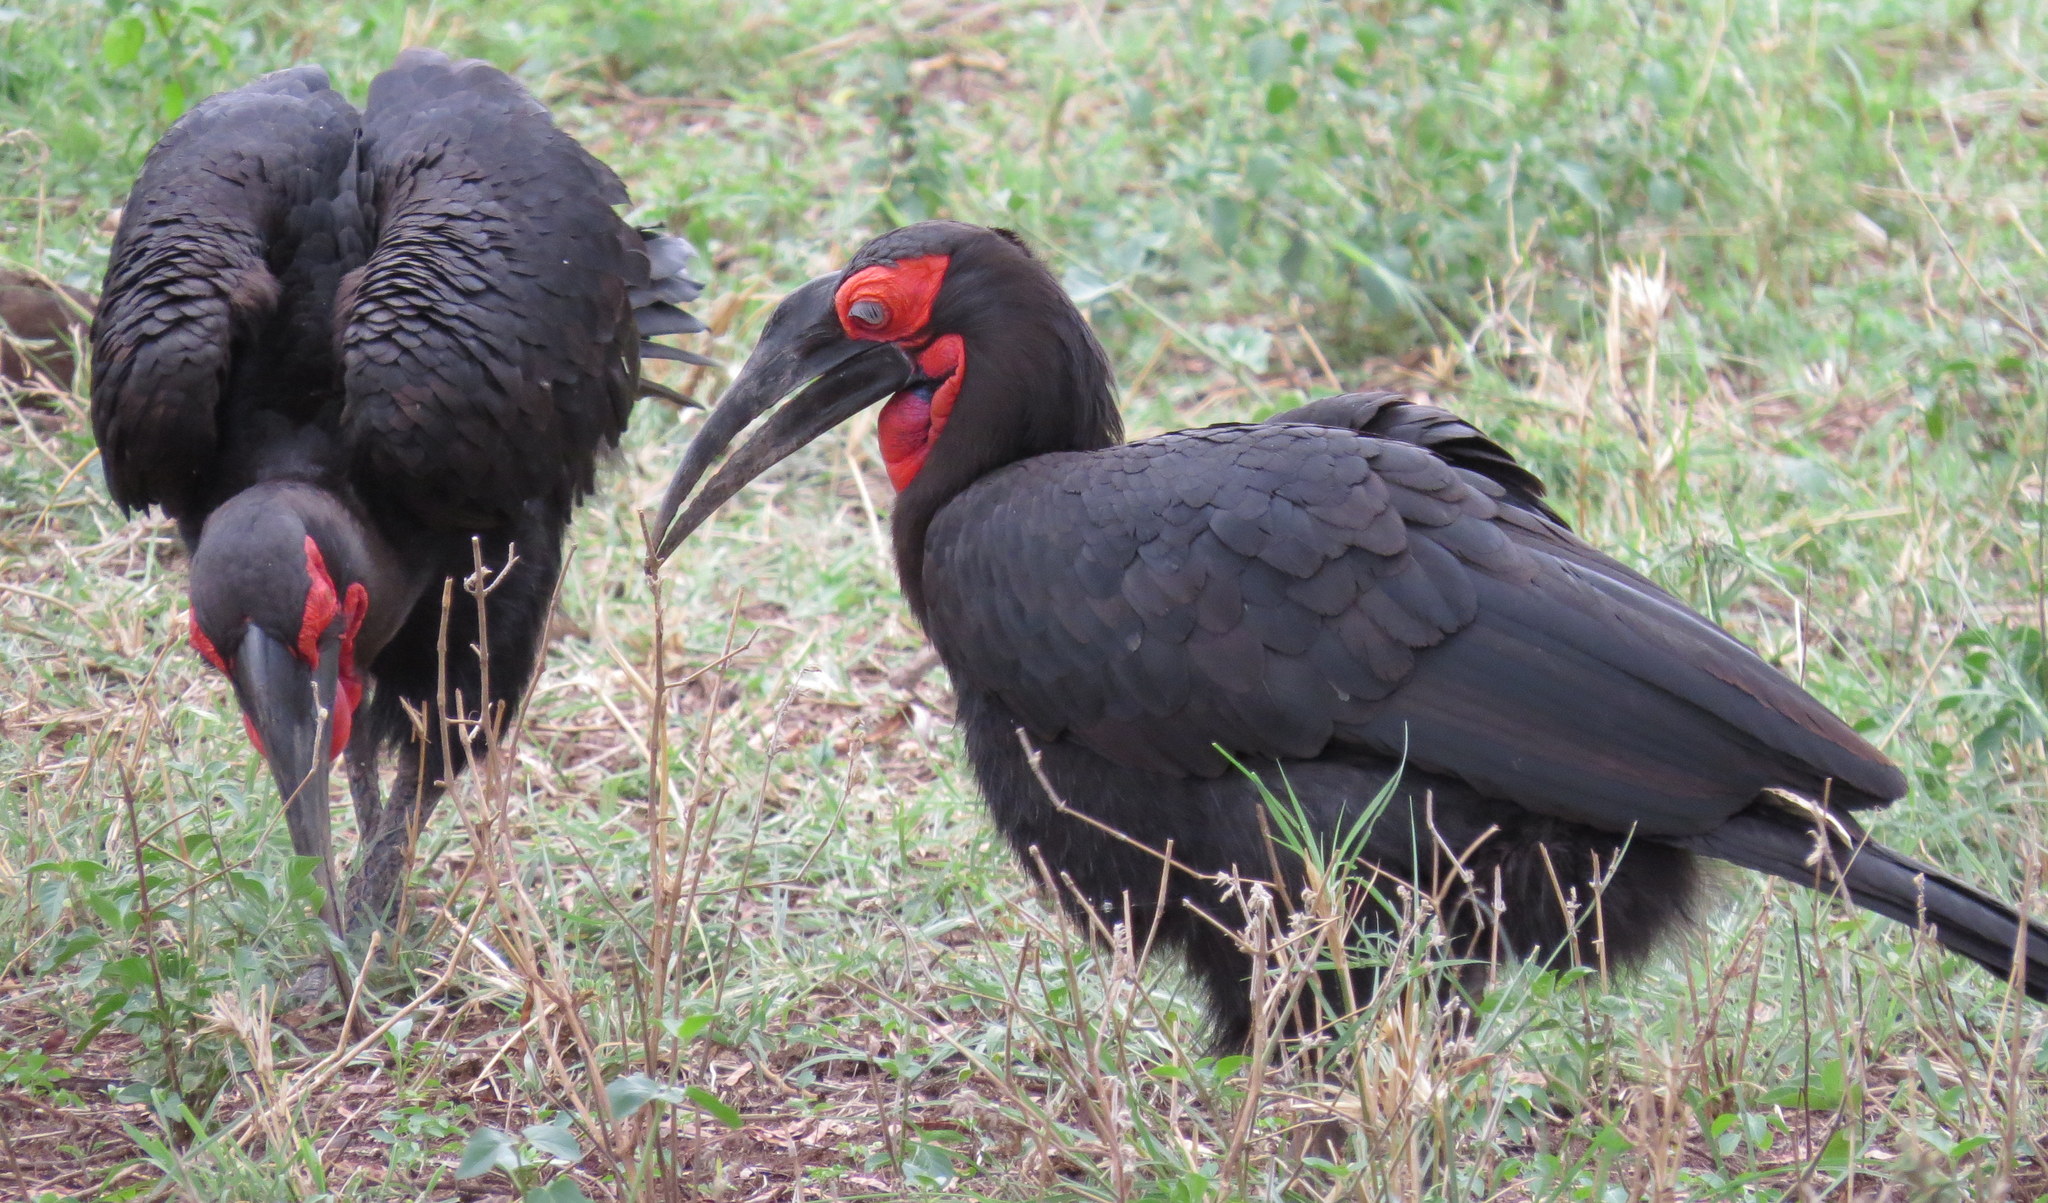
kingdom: Animalia
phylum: Chordata
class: Aves
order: Bucerotiformes
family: Bucorvidae
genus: Bucorvus
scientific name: Bucorvus leadbeateri
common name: Southern ground-hornbill
